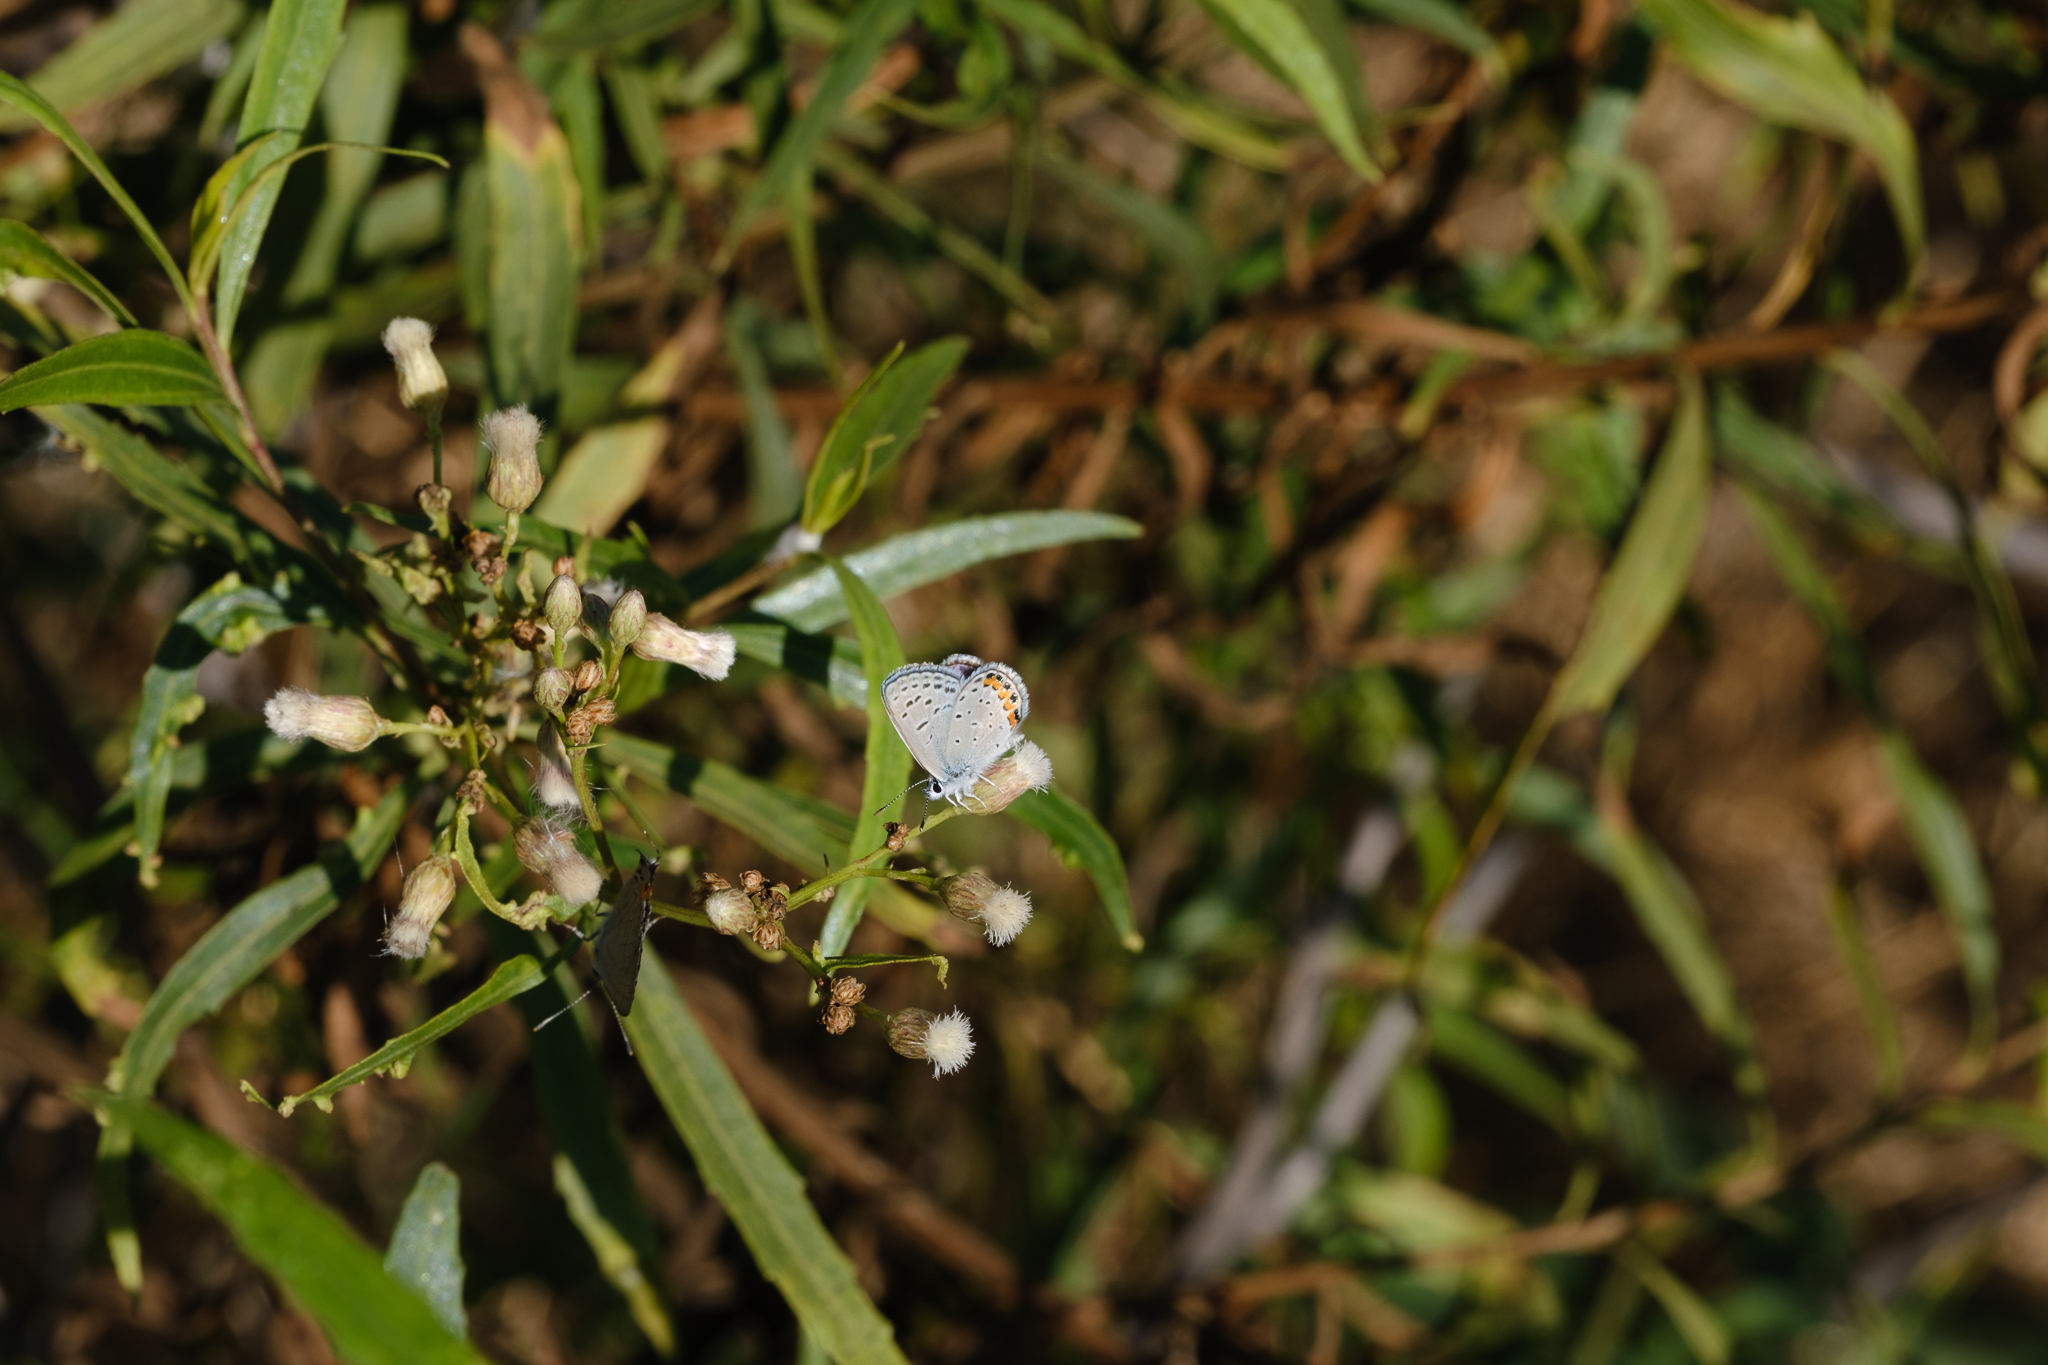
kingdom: Animalia
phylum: Arthropoda
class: Insecta
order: Lepidoptera
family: Lycaenidae
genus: Icaricia
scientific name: Icaricia acmon
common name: Acmon blue
